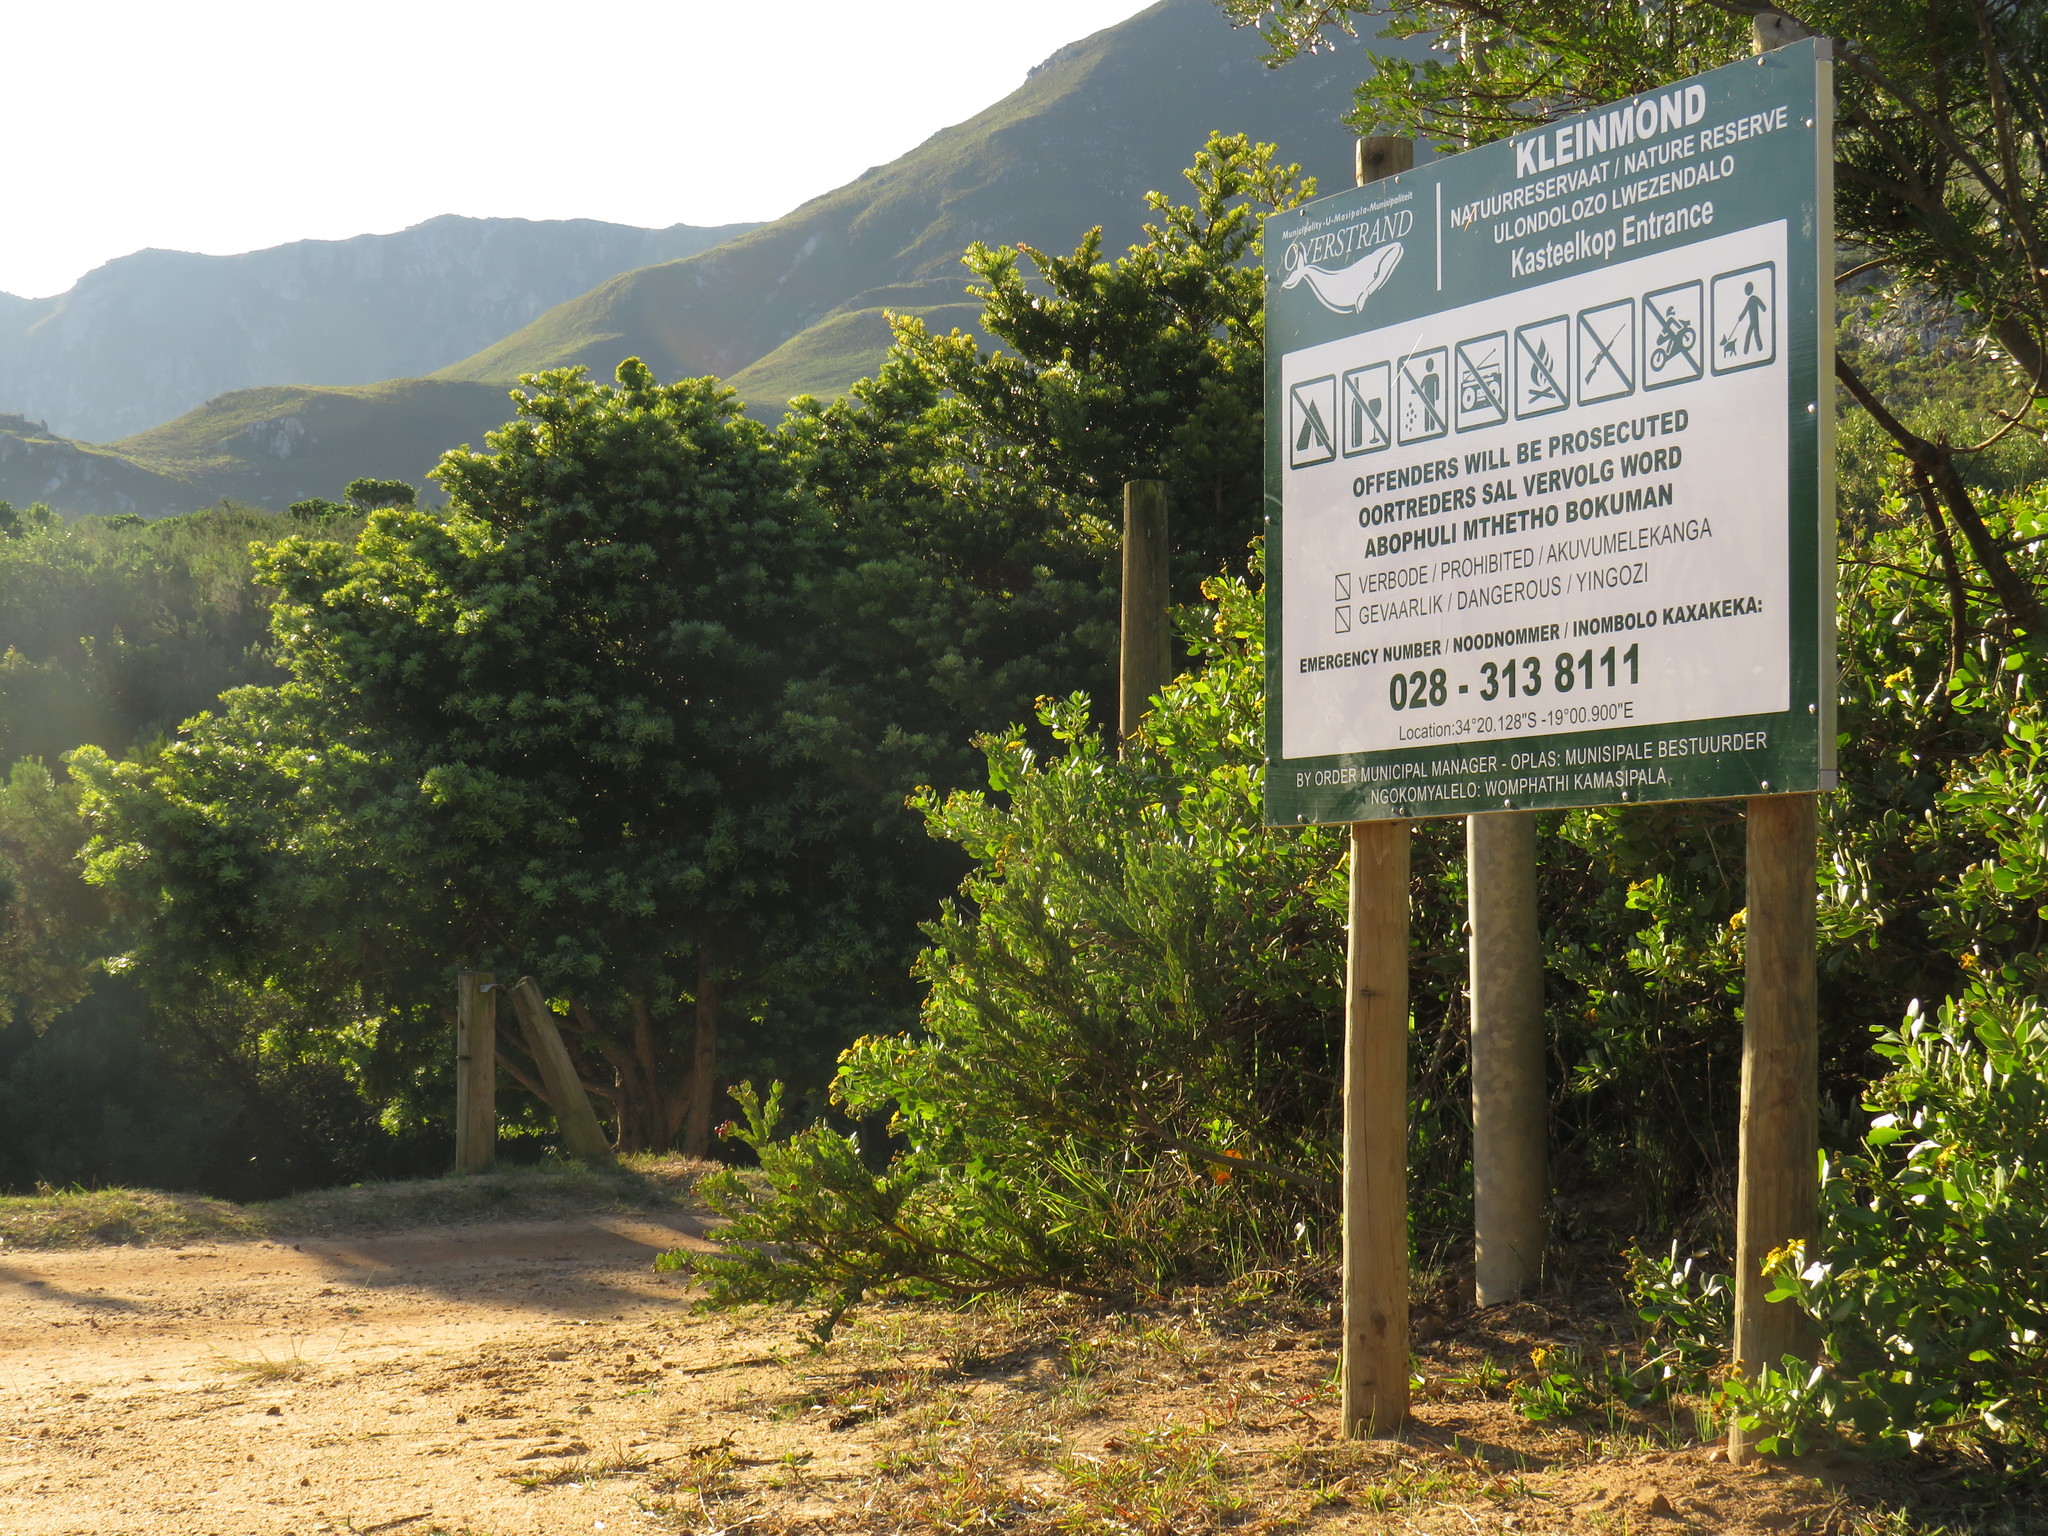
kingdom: Plantae
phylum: Tracheophyta
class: Pinopsida
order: Pinales
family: Podocarpaceae
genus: Podocarpus
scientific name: Podocarpus latifolius
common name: True yellowwood
